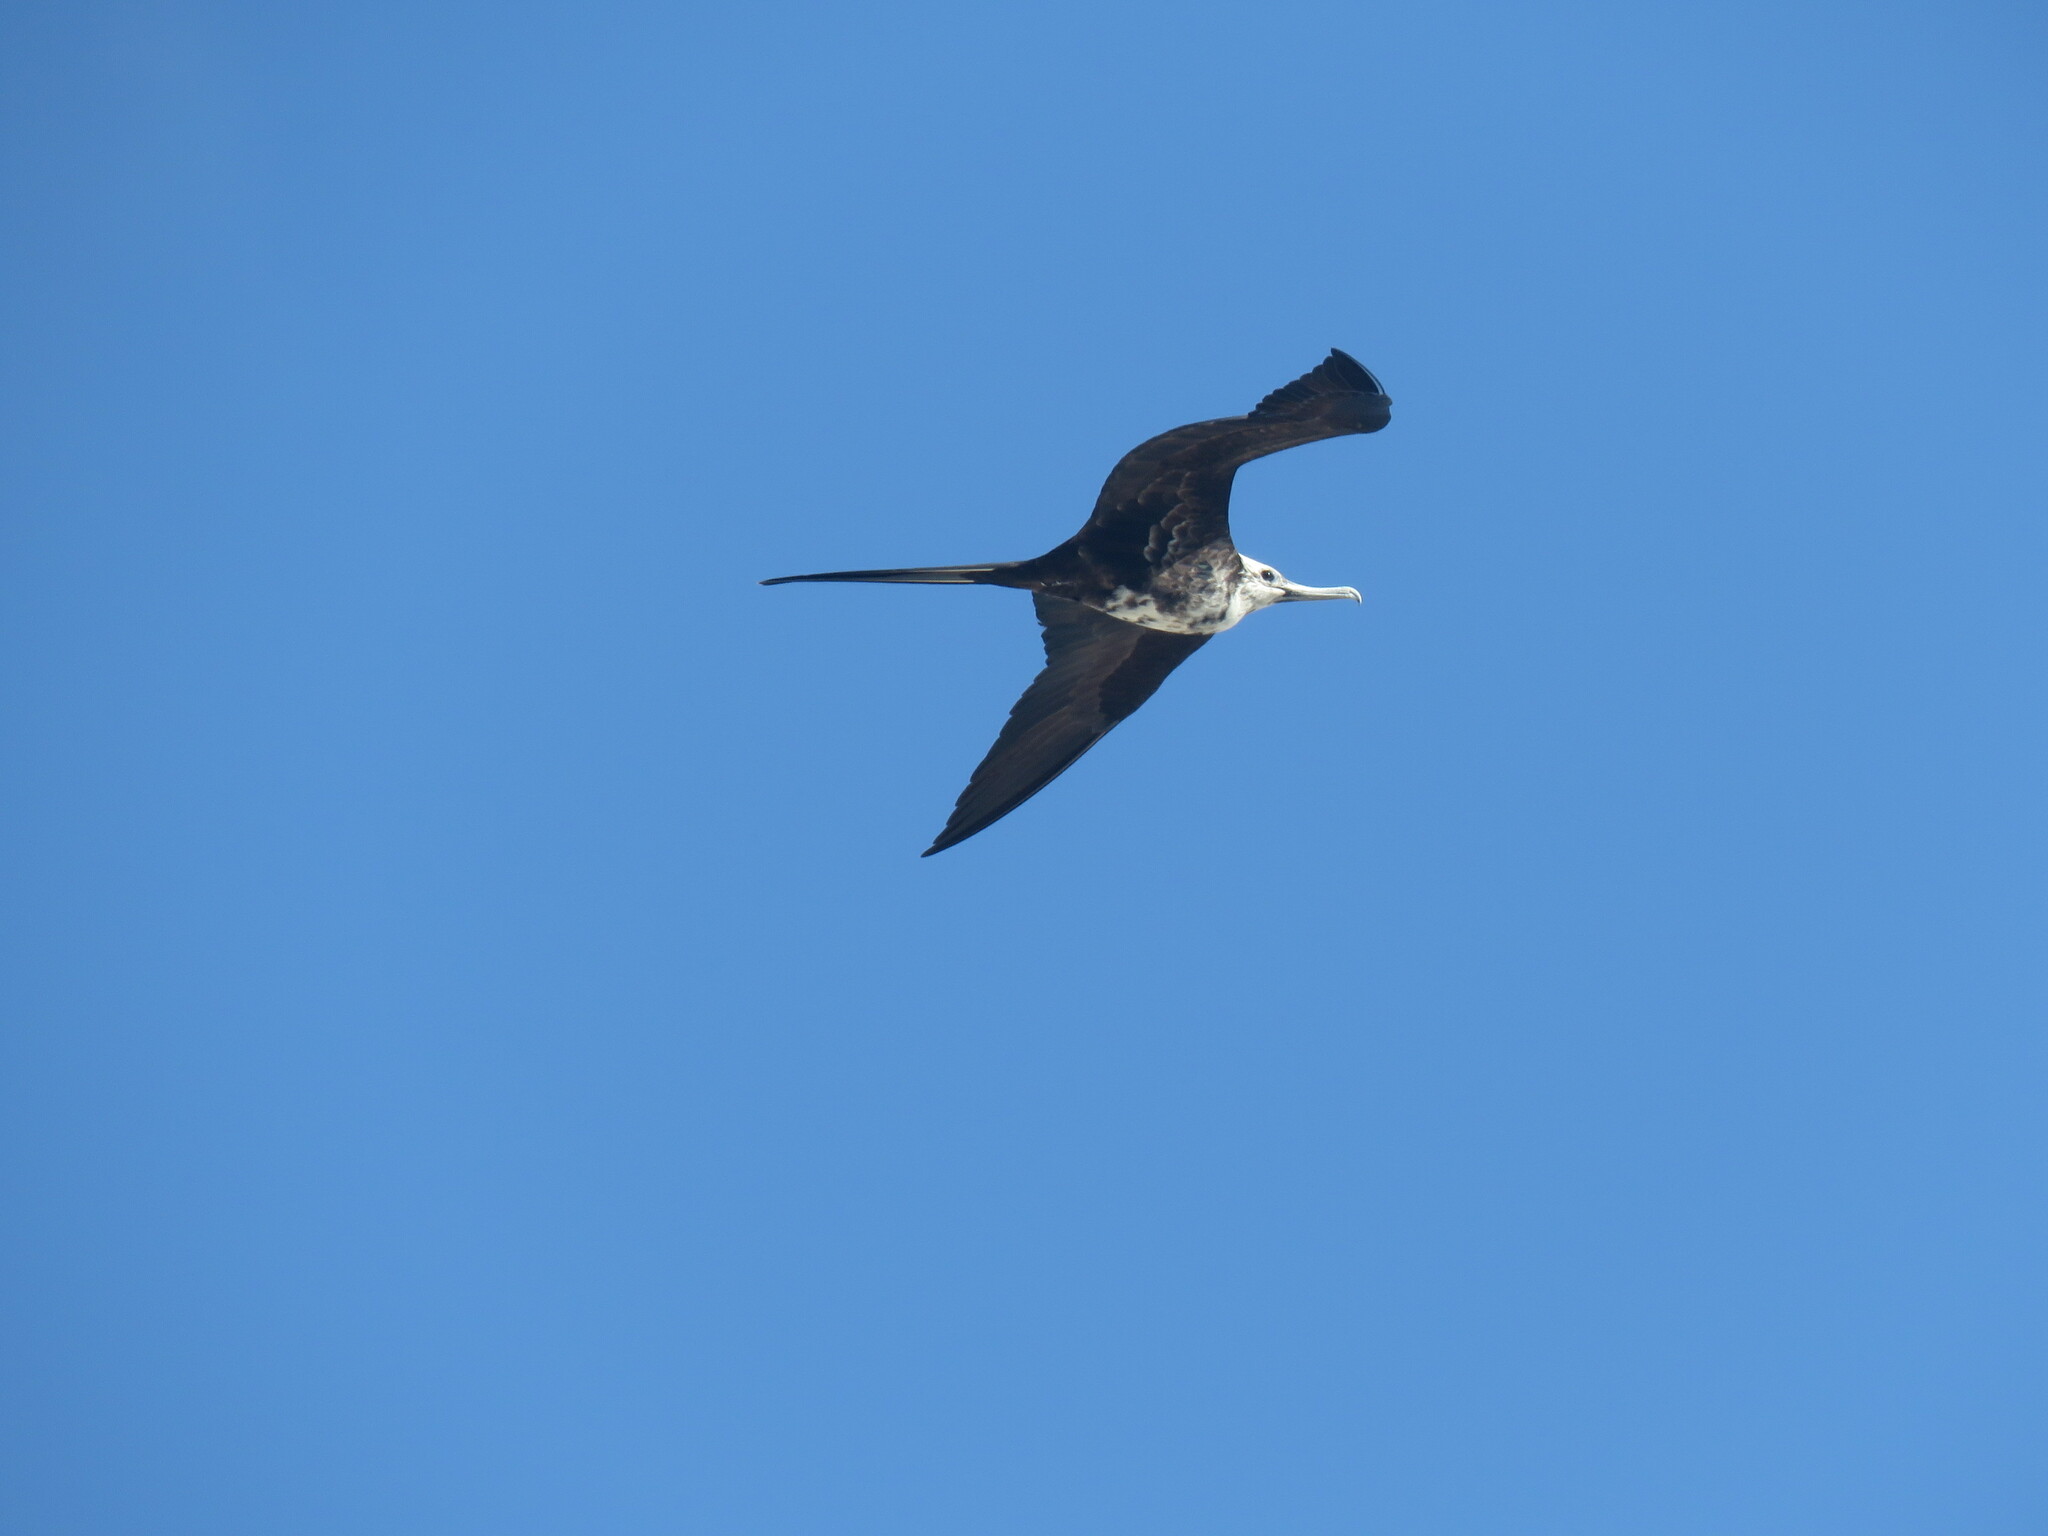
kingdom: Animalia
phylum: Chordata
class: Aves
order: Suliformes
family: Fregatidae
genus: Fregata
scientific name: Fregata magnificens
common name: Magnificent frigatebird
